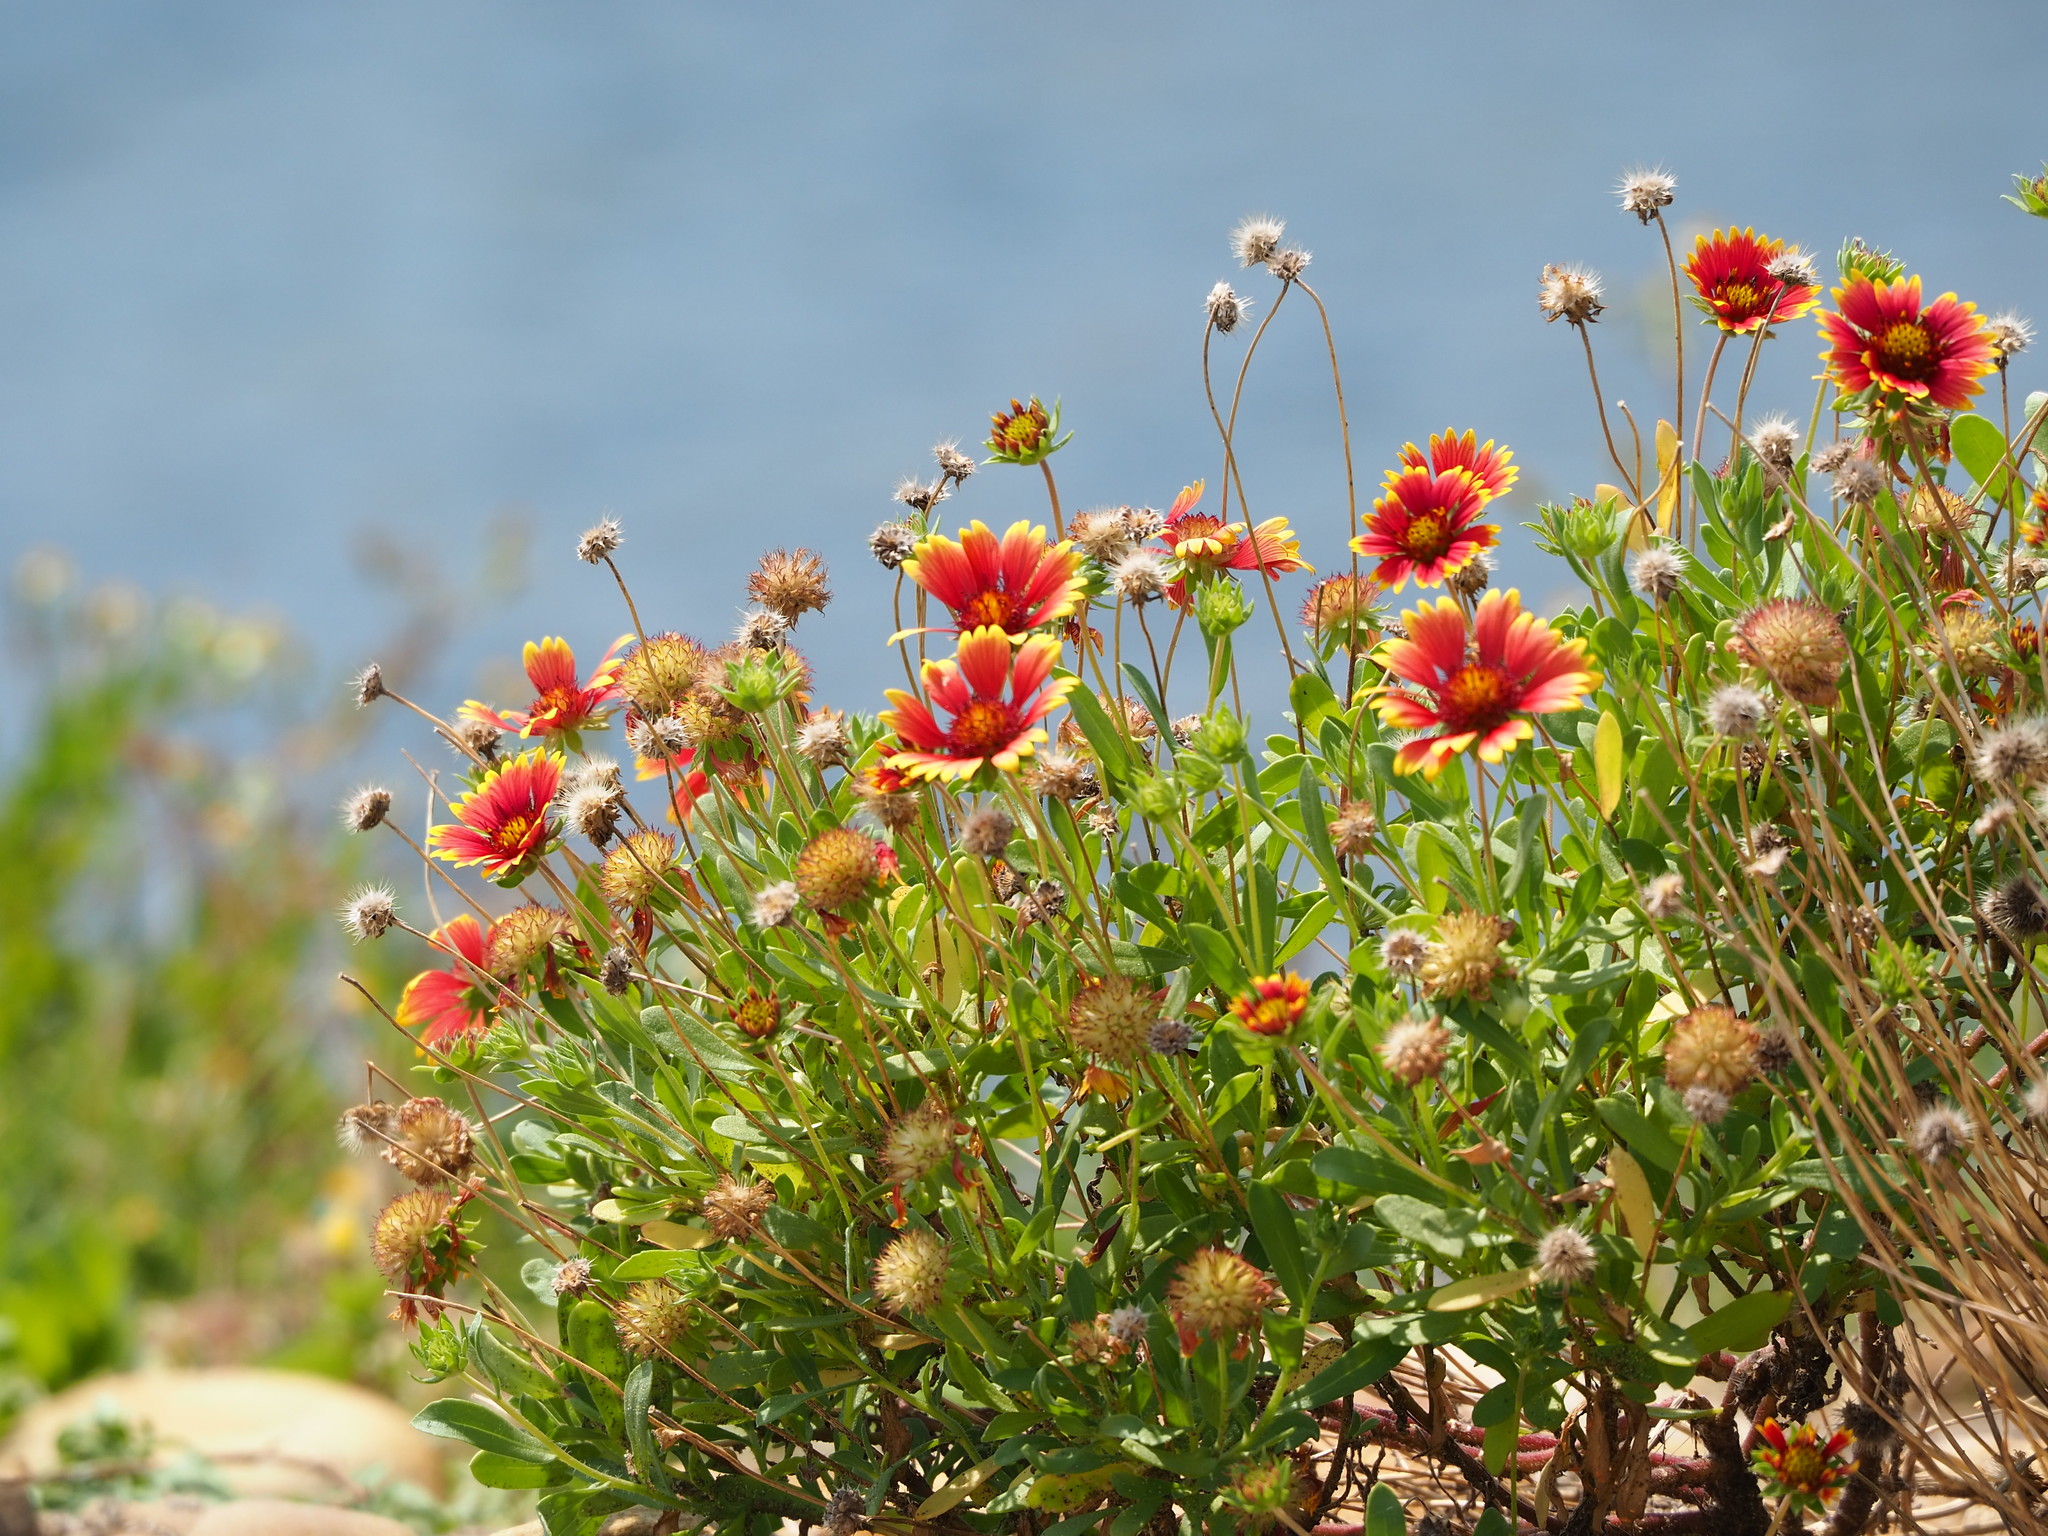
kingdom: Plantae
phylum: Tracheophyta
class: Magnoliopsida
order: Asterales
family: Asteraceae
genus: Gaillardia
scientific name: Gaillardia pulchella
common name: Firewheel
